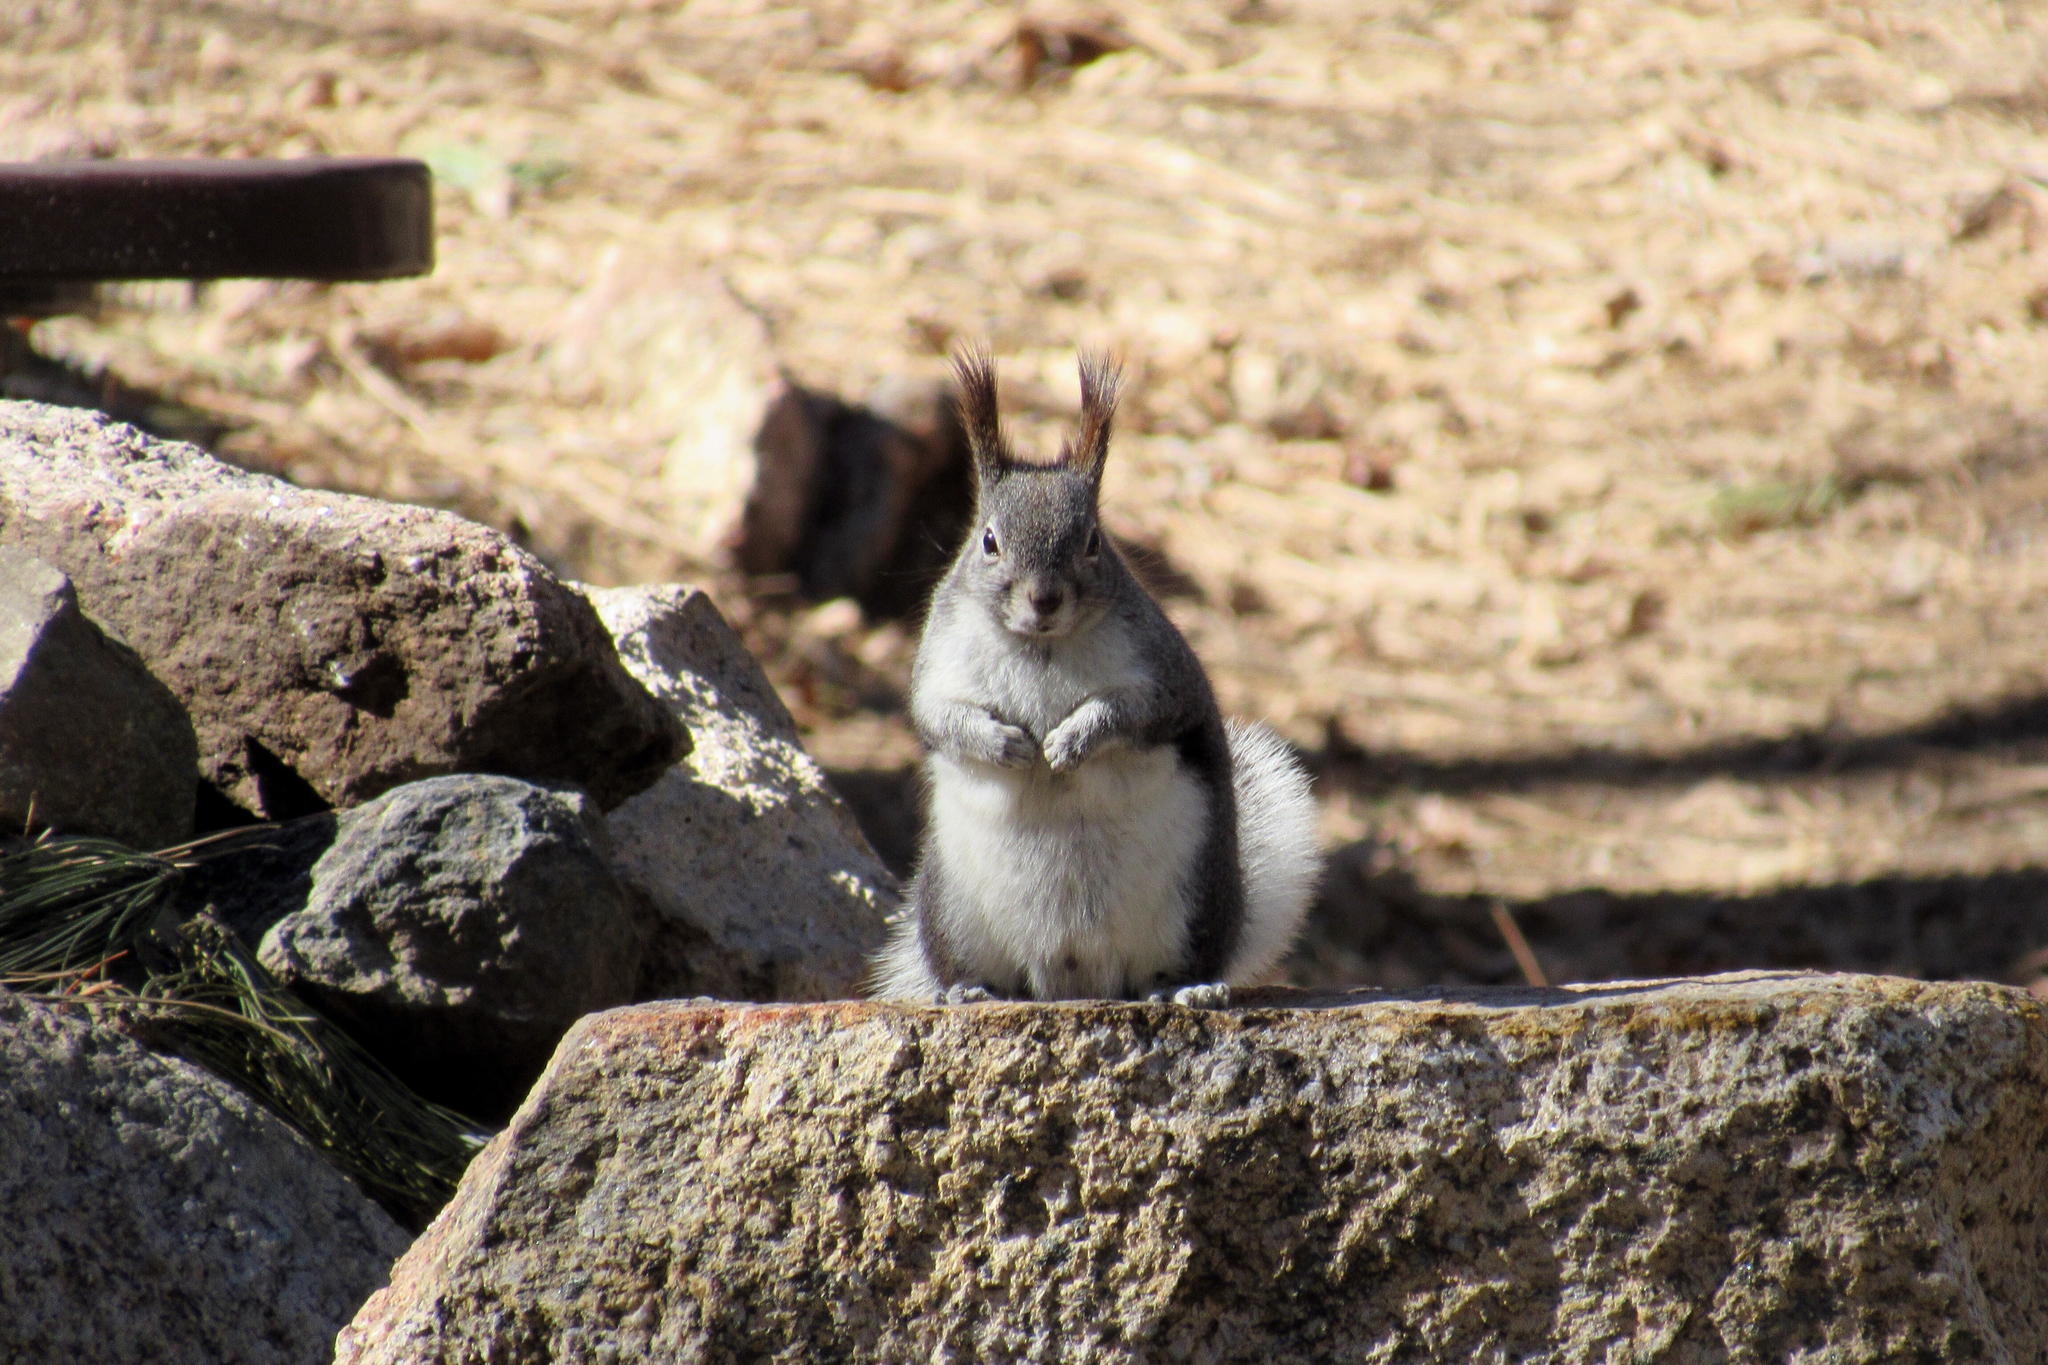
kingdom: Animalia
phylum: Chordata
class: Mammalia
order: Rodentia
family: Sciuridae
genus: Sciurus
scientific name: Sciurus aberti
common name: Abert's squirrel
